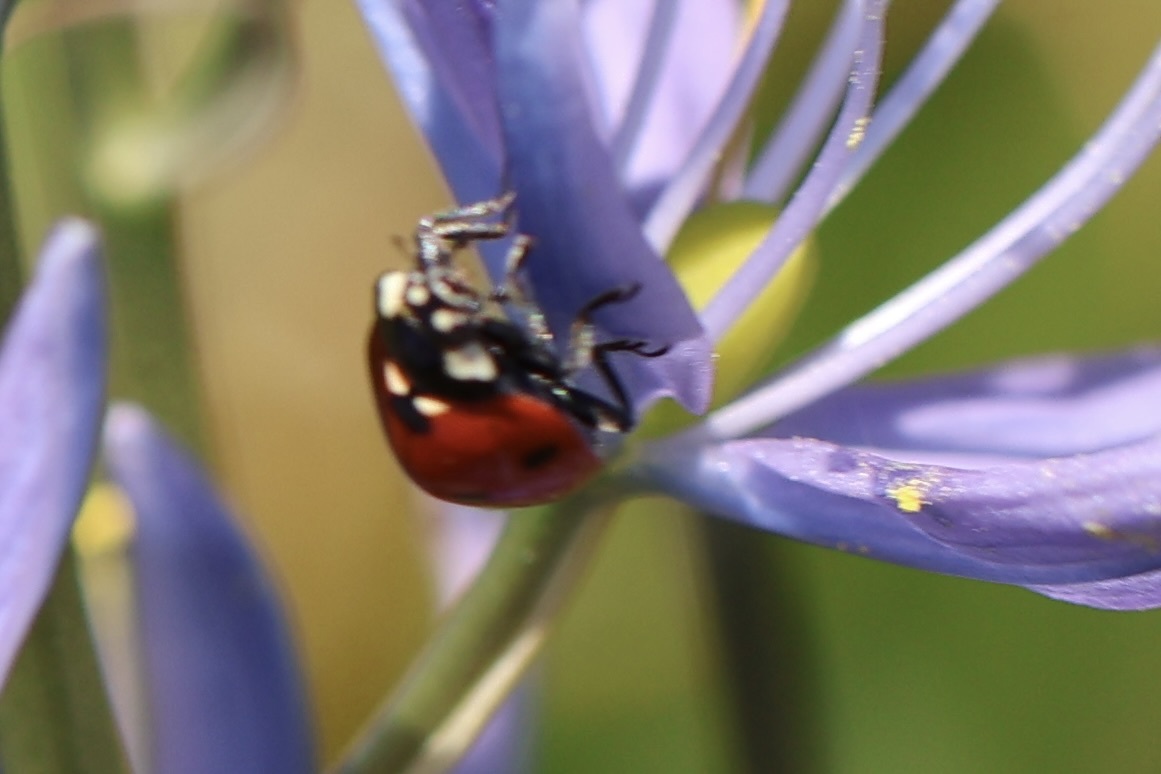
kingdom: Animalia
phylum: Arthropoda
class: Insecta
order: Coleoptera
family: Coccinellidae
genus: Coccinella
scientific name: Coccinella septempunctata
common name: Sevenspotted lady beetle
